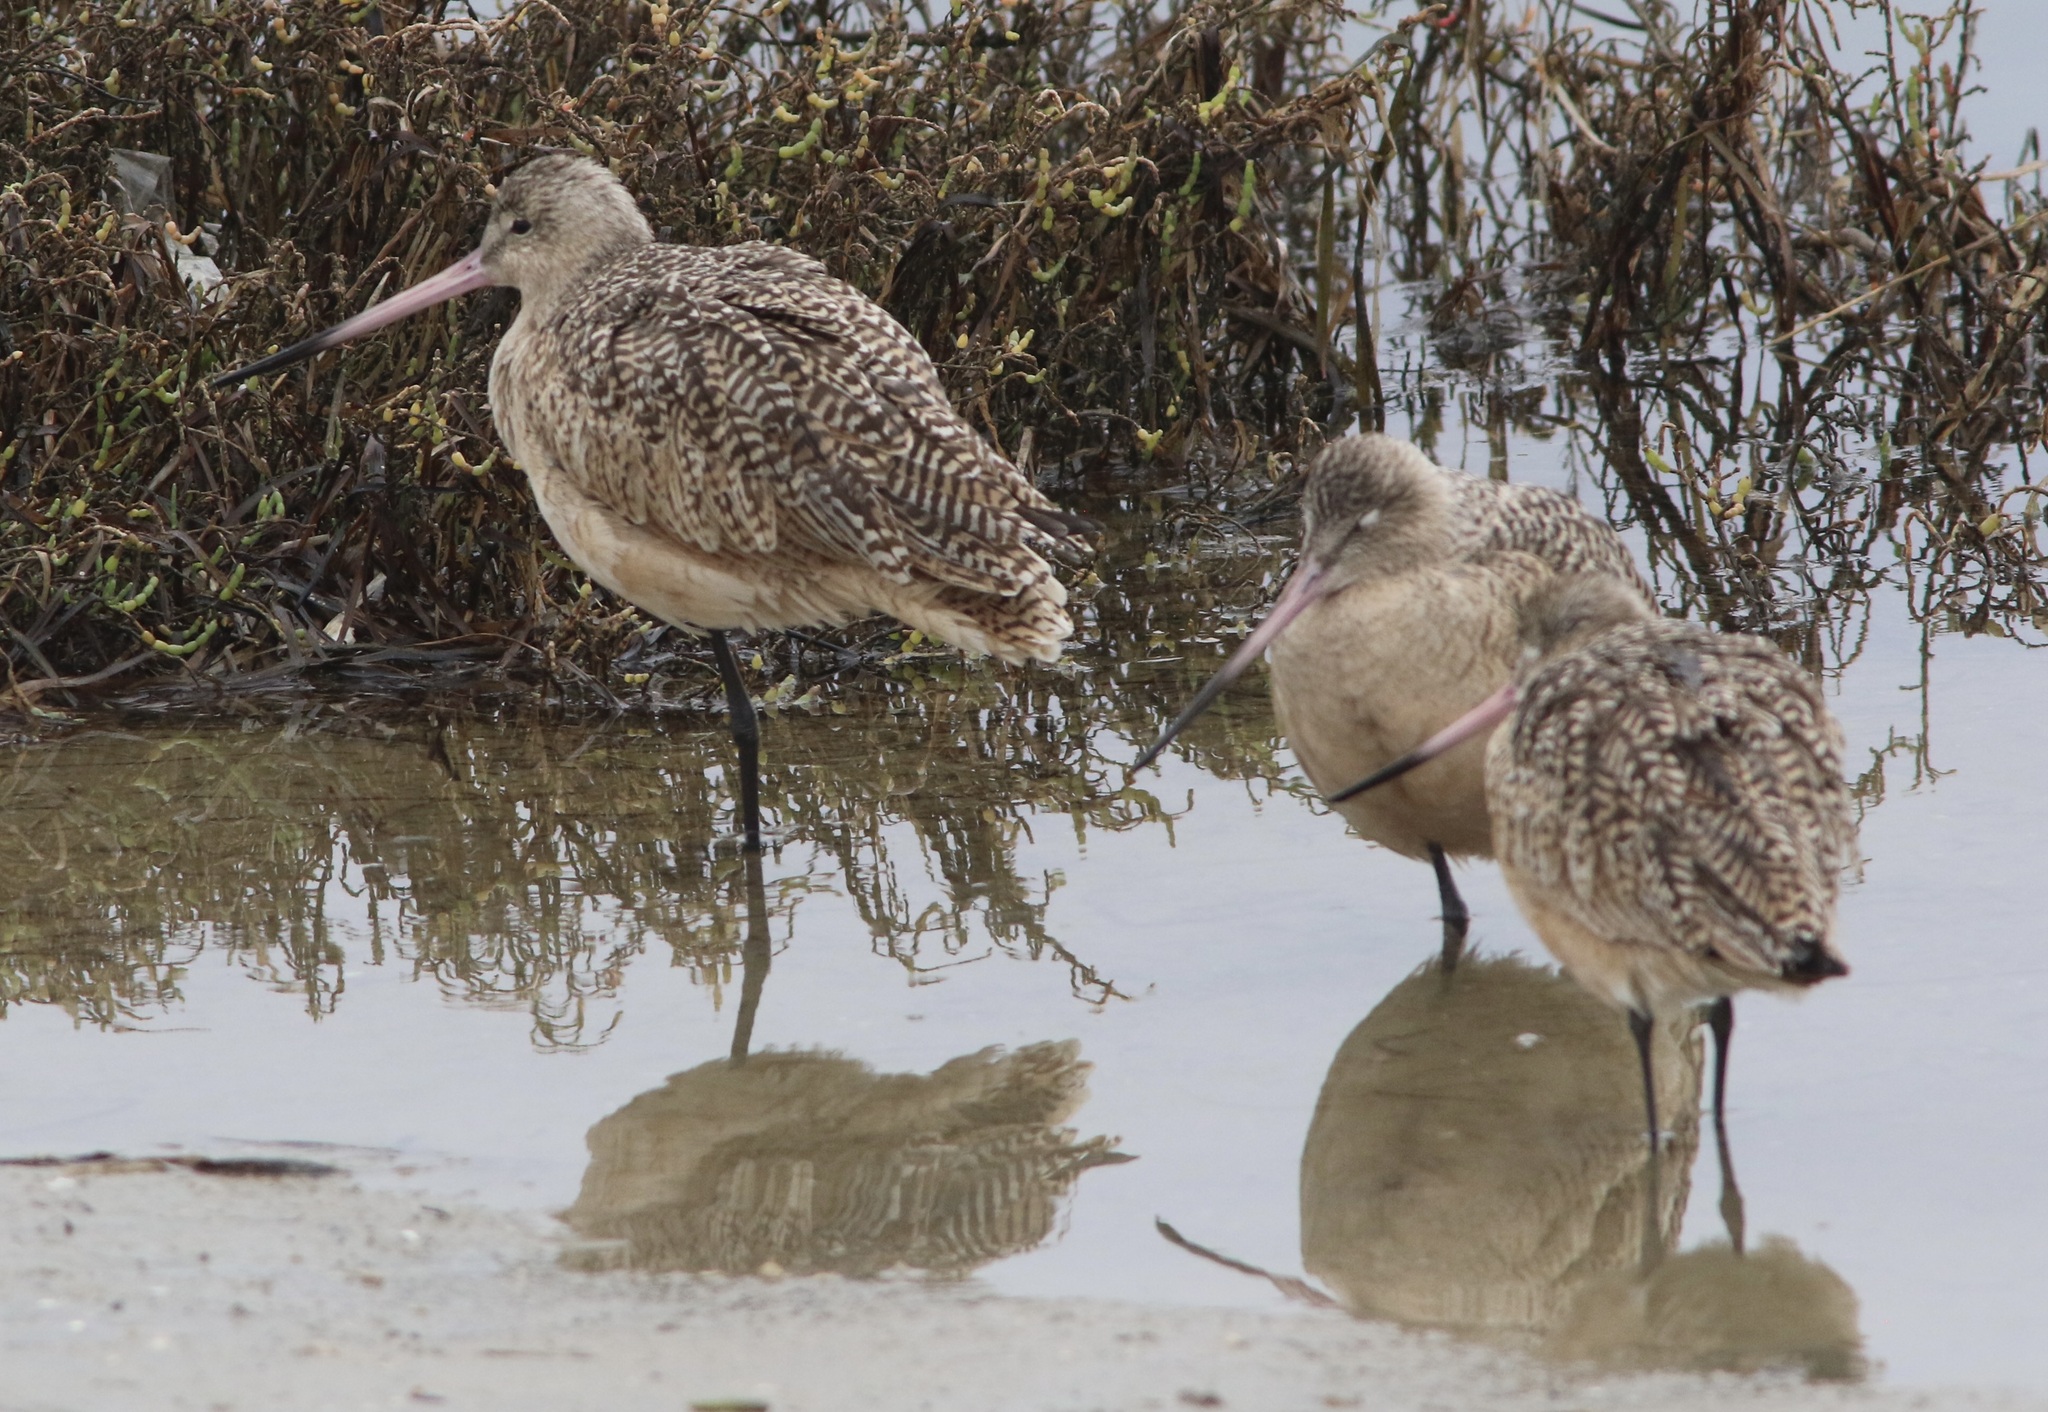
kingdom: Animalia
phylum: Chordata
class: Aves
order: Charadriiformes
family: Scolopacidae
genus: Limosa
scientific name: Limosa fedoa
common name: Marbled godwit
